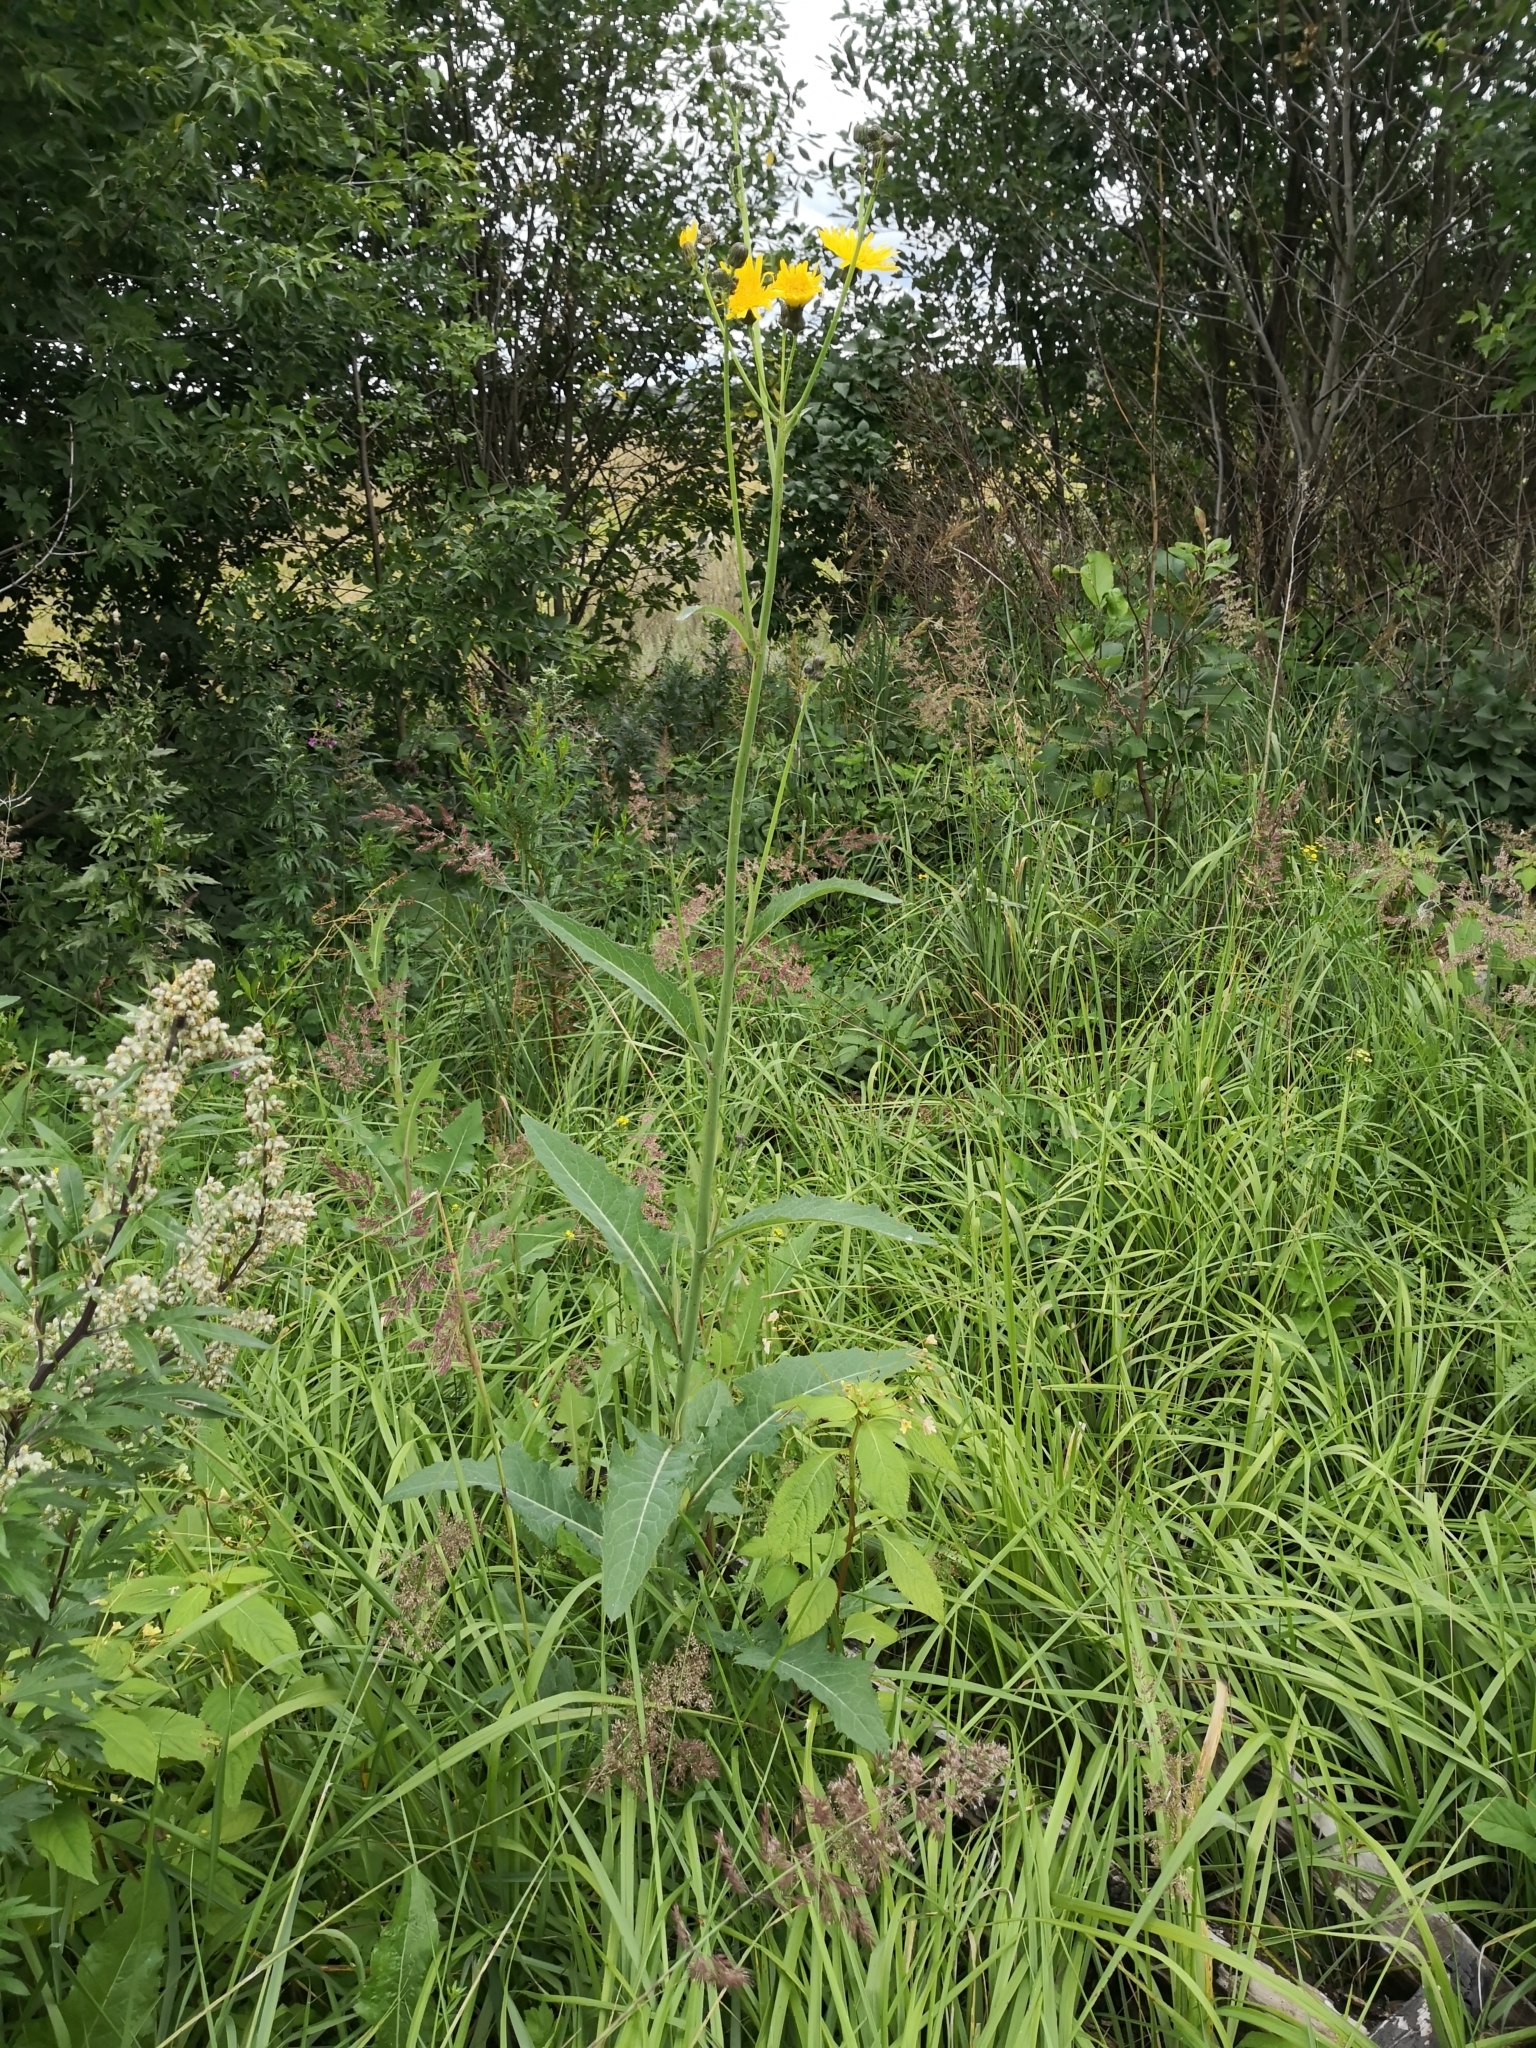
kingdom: Plantae
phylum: Tracheophyta
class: Magnoliopsida
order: Asterales
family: Asteraceae
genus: Sonchus
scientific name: Sonchus arvensis
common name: Perennial sow-thistle
